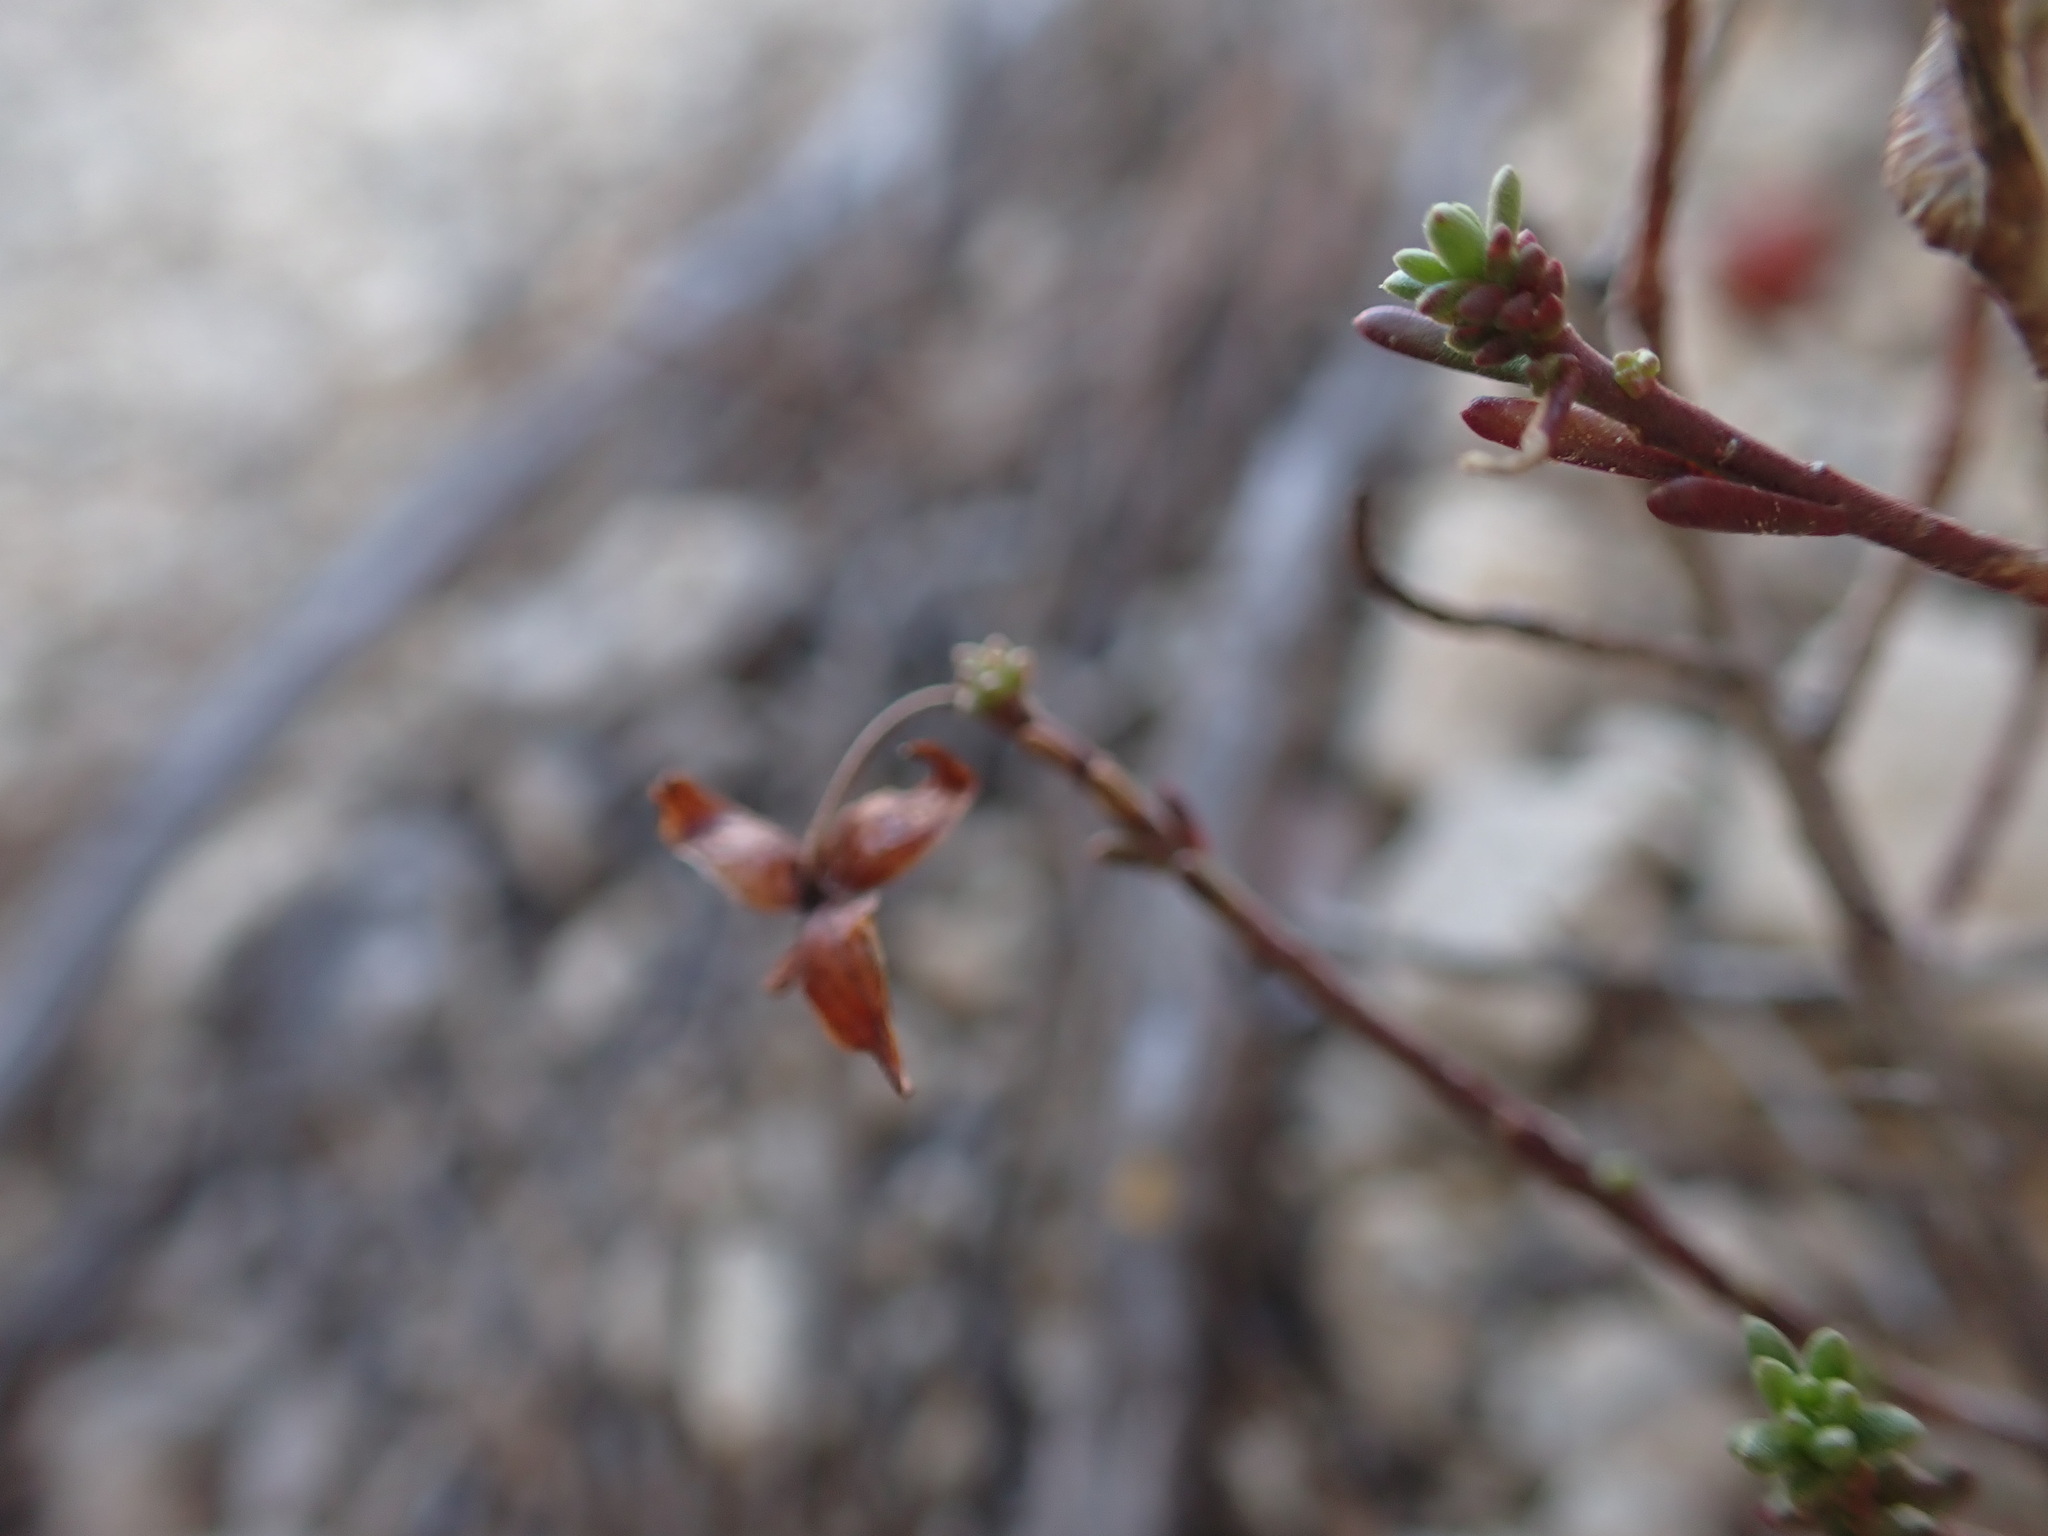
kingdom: Plantae
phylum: Tracheophyta
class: Magnoliopsida
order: Malvales
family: Cistaceae
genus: Fumana
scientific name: Fumana ericifolia
